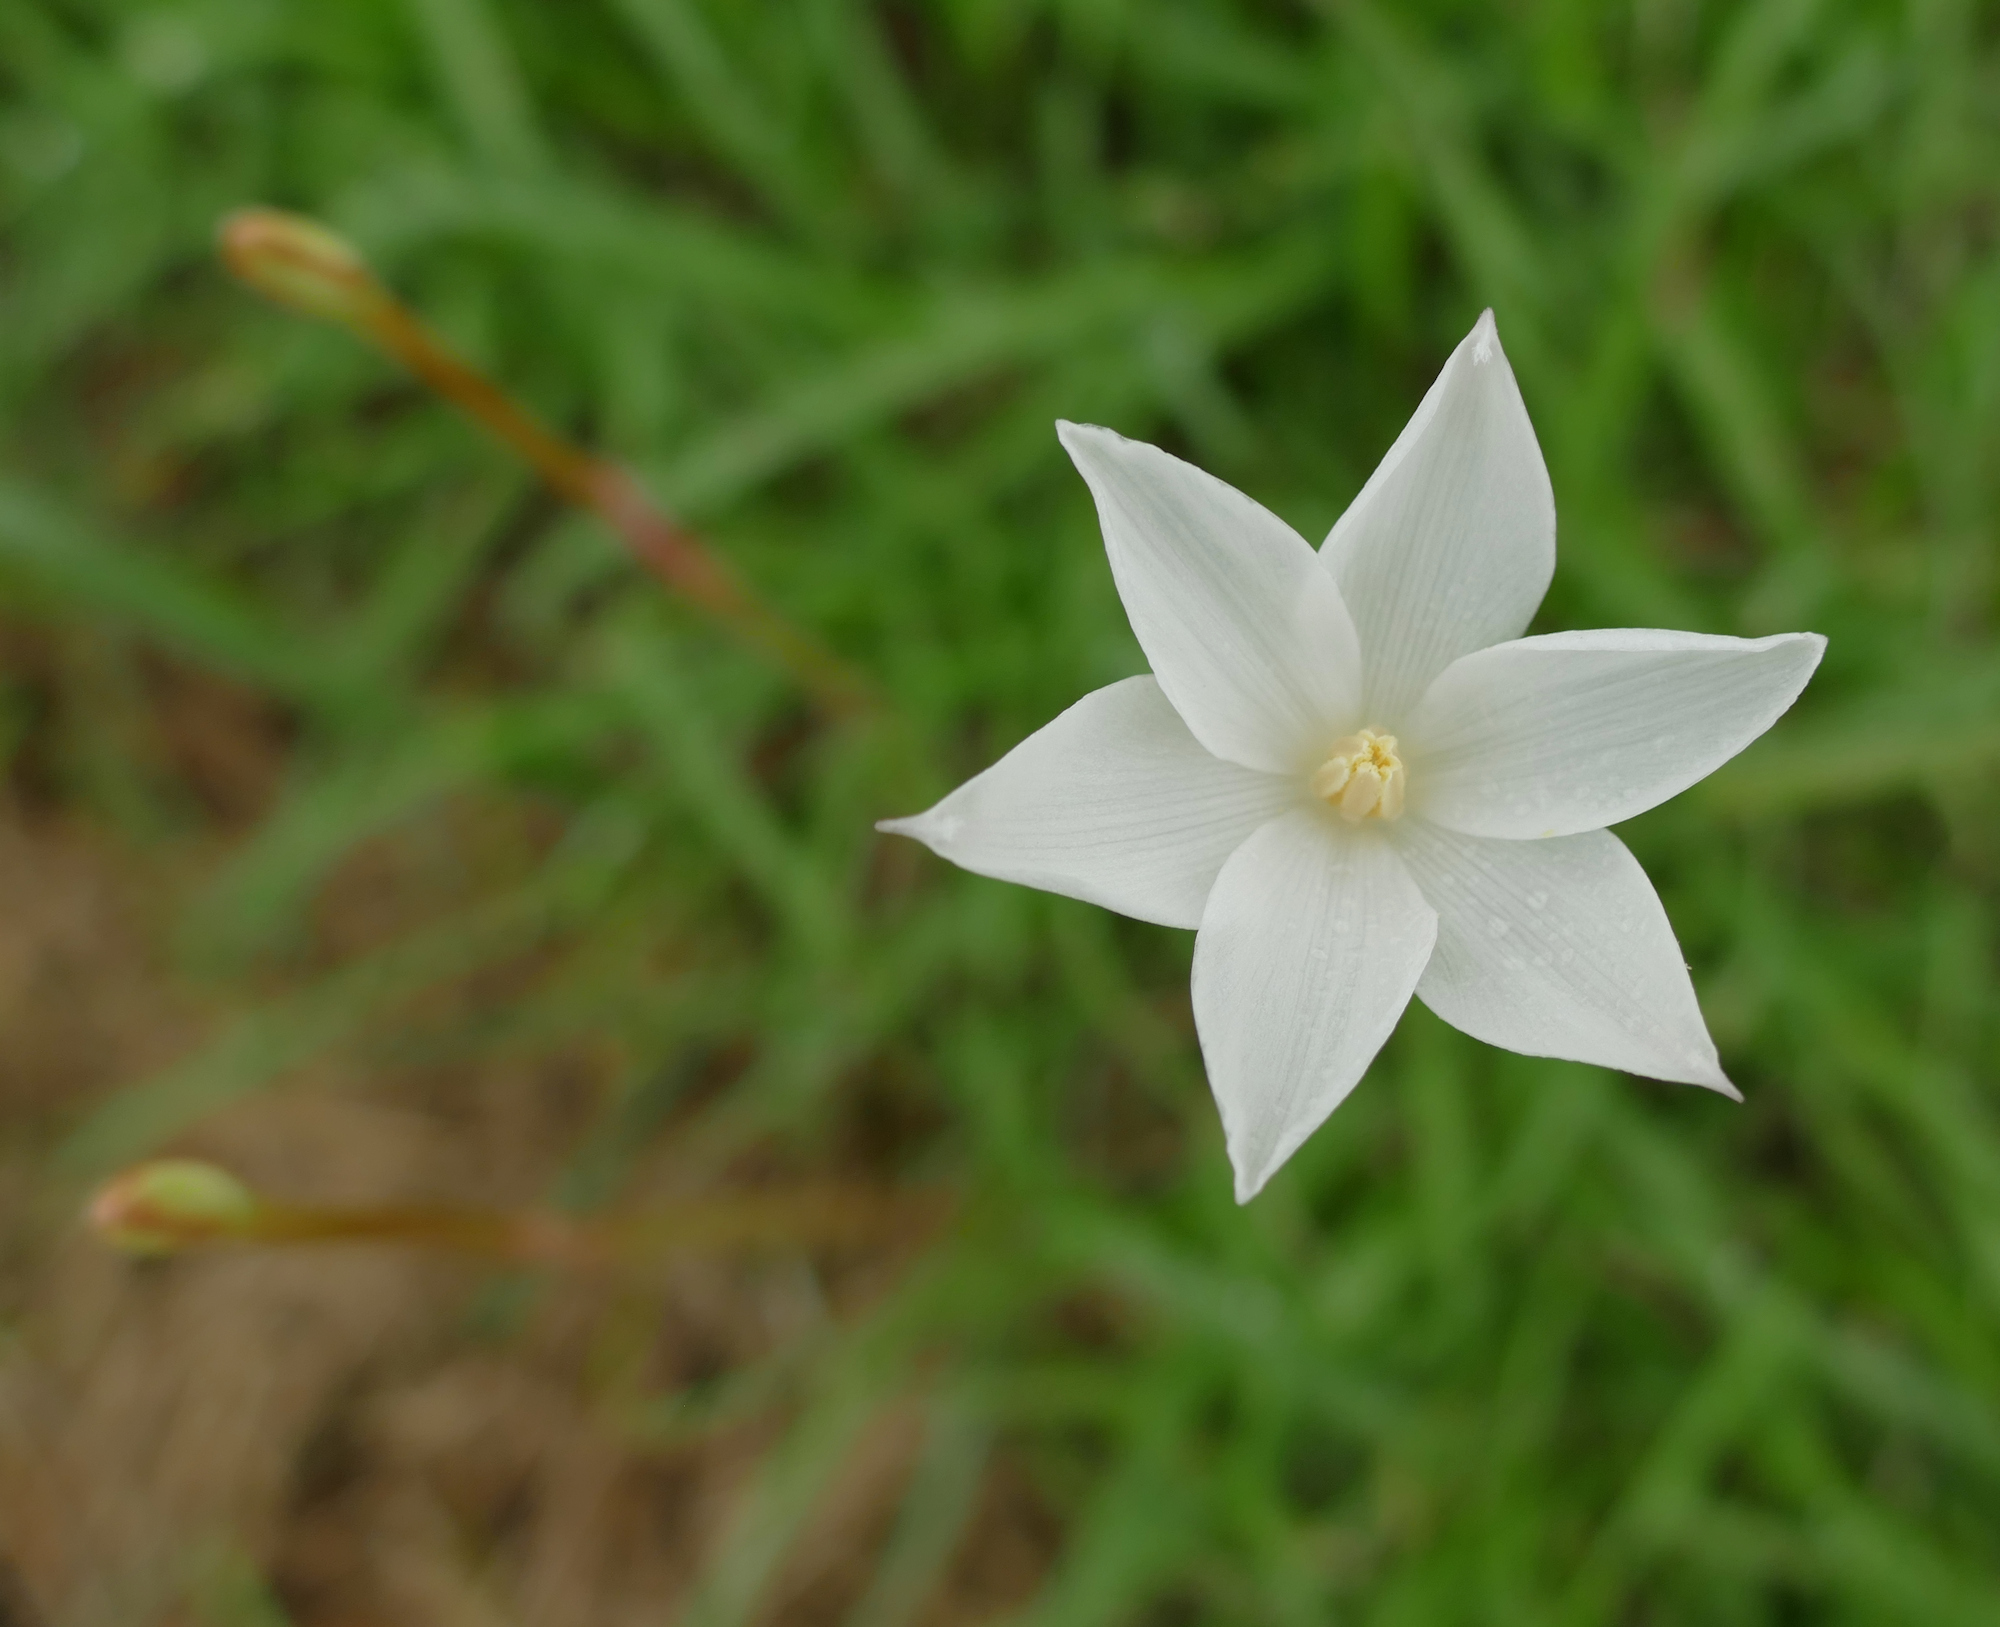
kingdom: Plantae
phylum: Tracheophyta
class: Liliopsida
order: Asparagales
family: Amaryllidaceae
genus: Zephyranthes
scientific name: Zephyranthes chlorosolen
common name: Evening rain-lily
